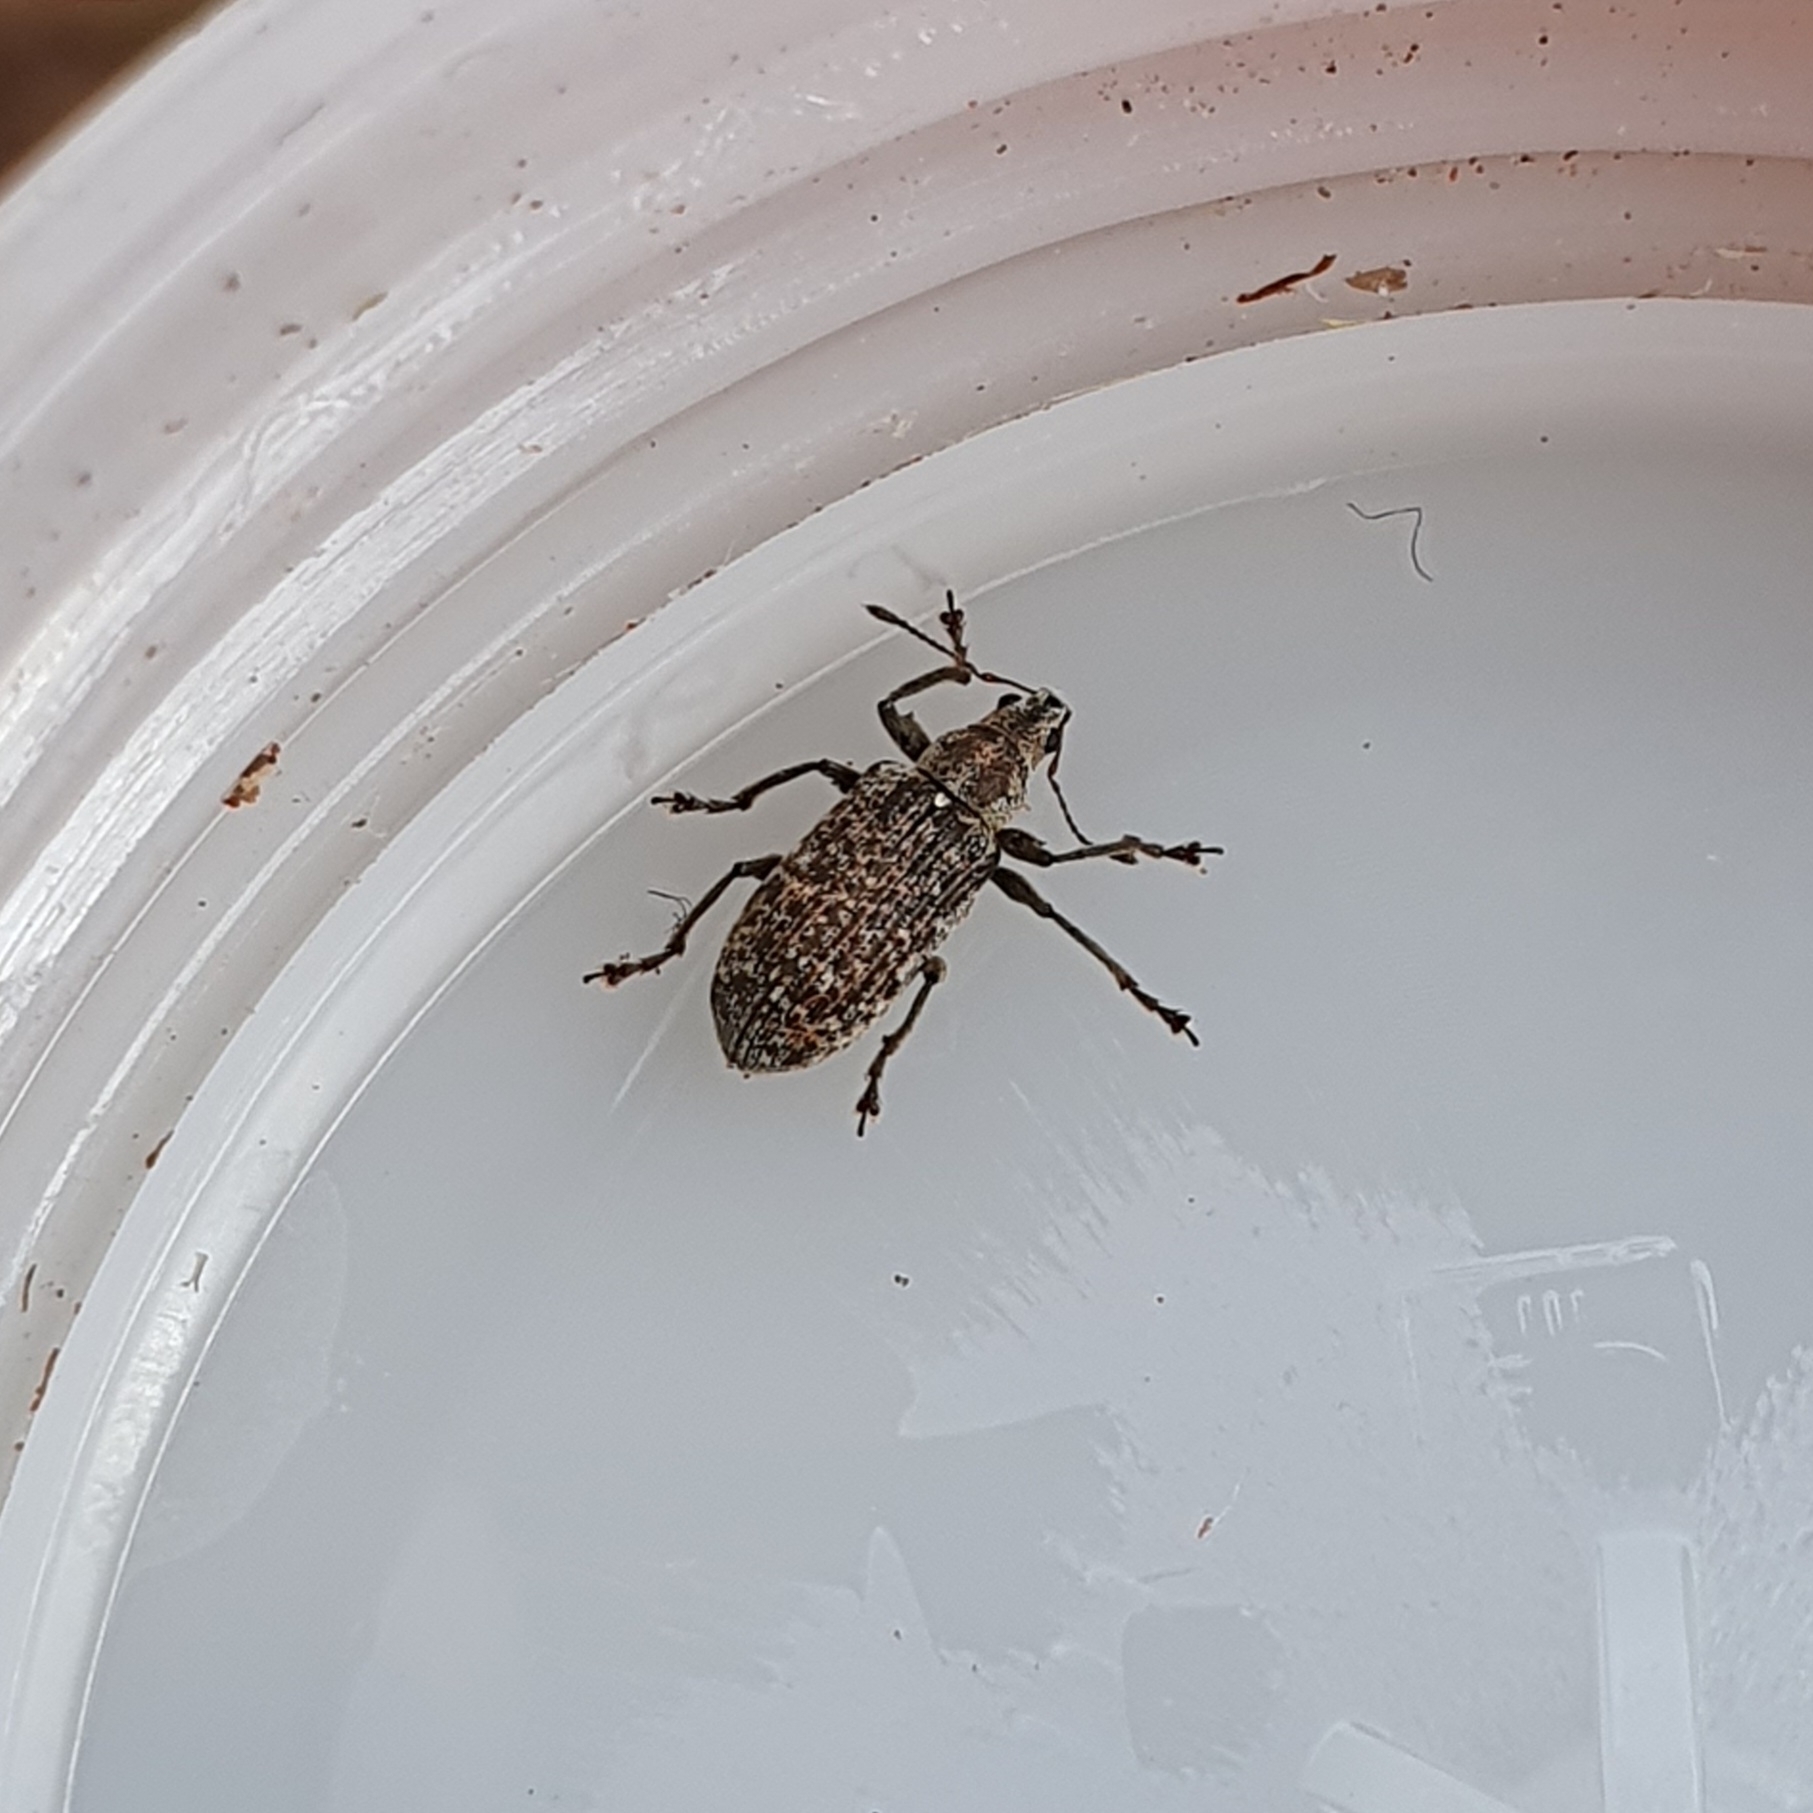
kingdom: Animalia
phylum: Arthropoda
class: Insecta
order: Coleoptera
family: Curculionidae
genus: Polydrusus
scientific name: Polydrusus pilosus
